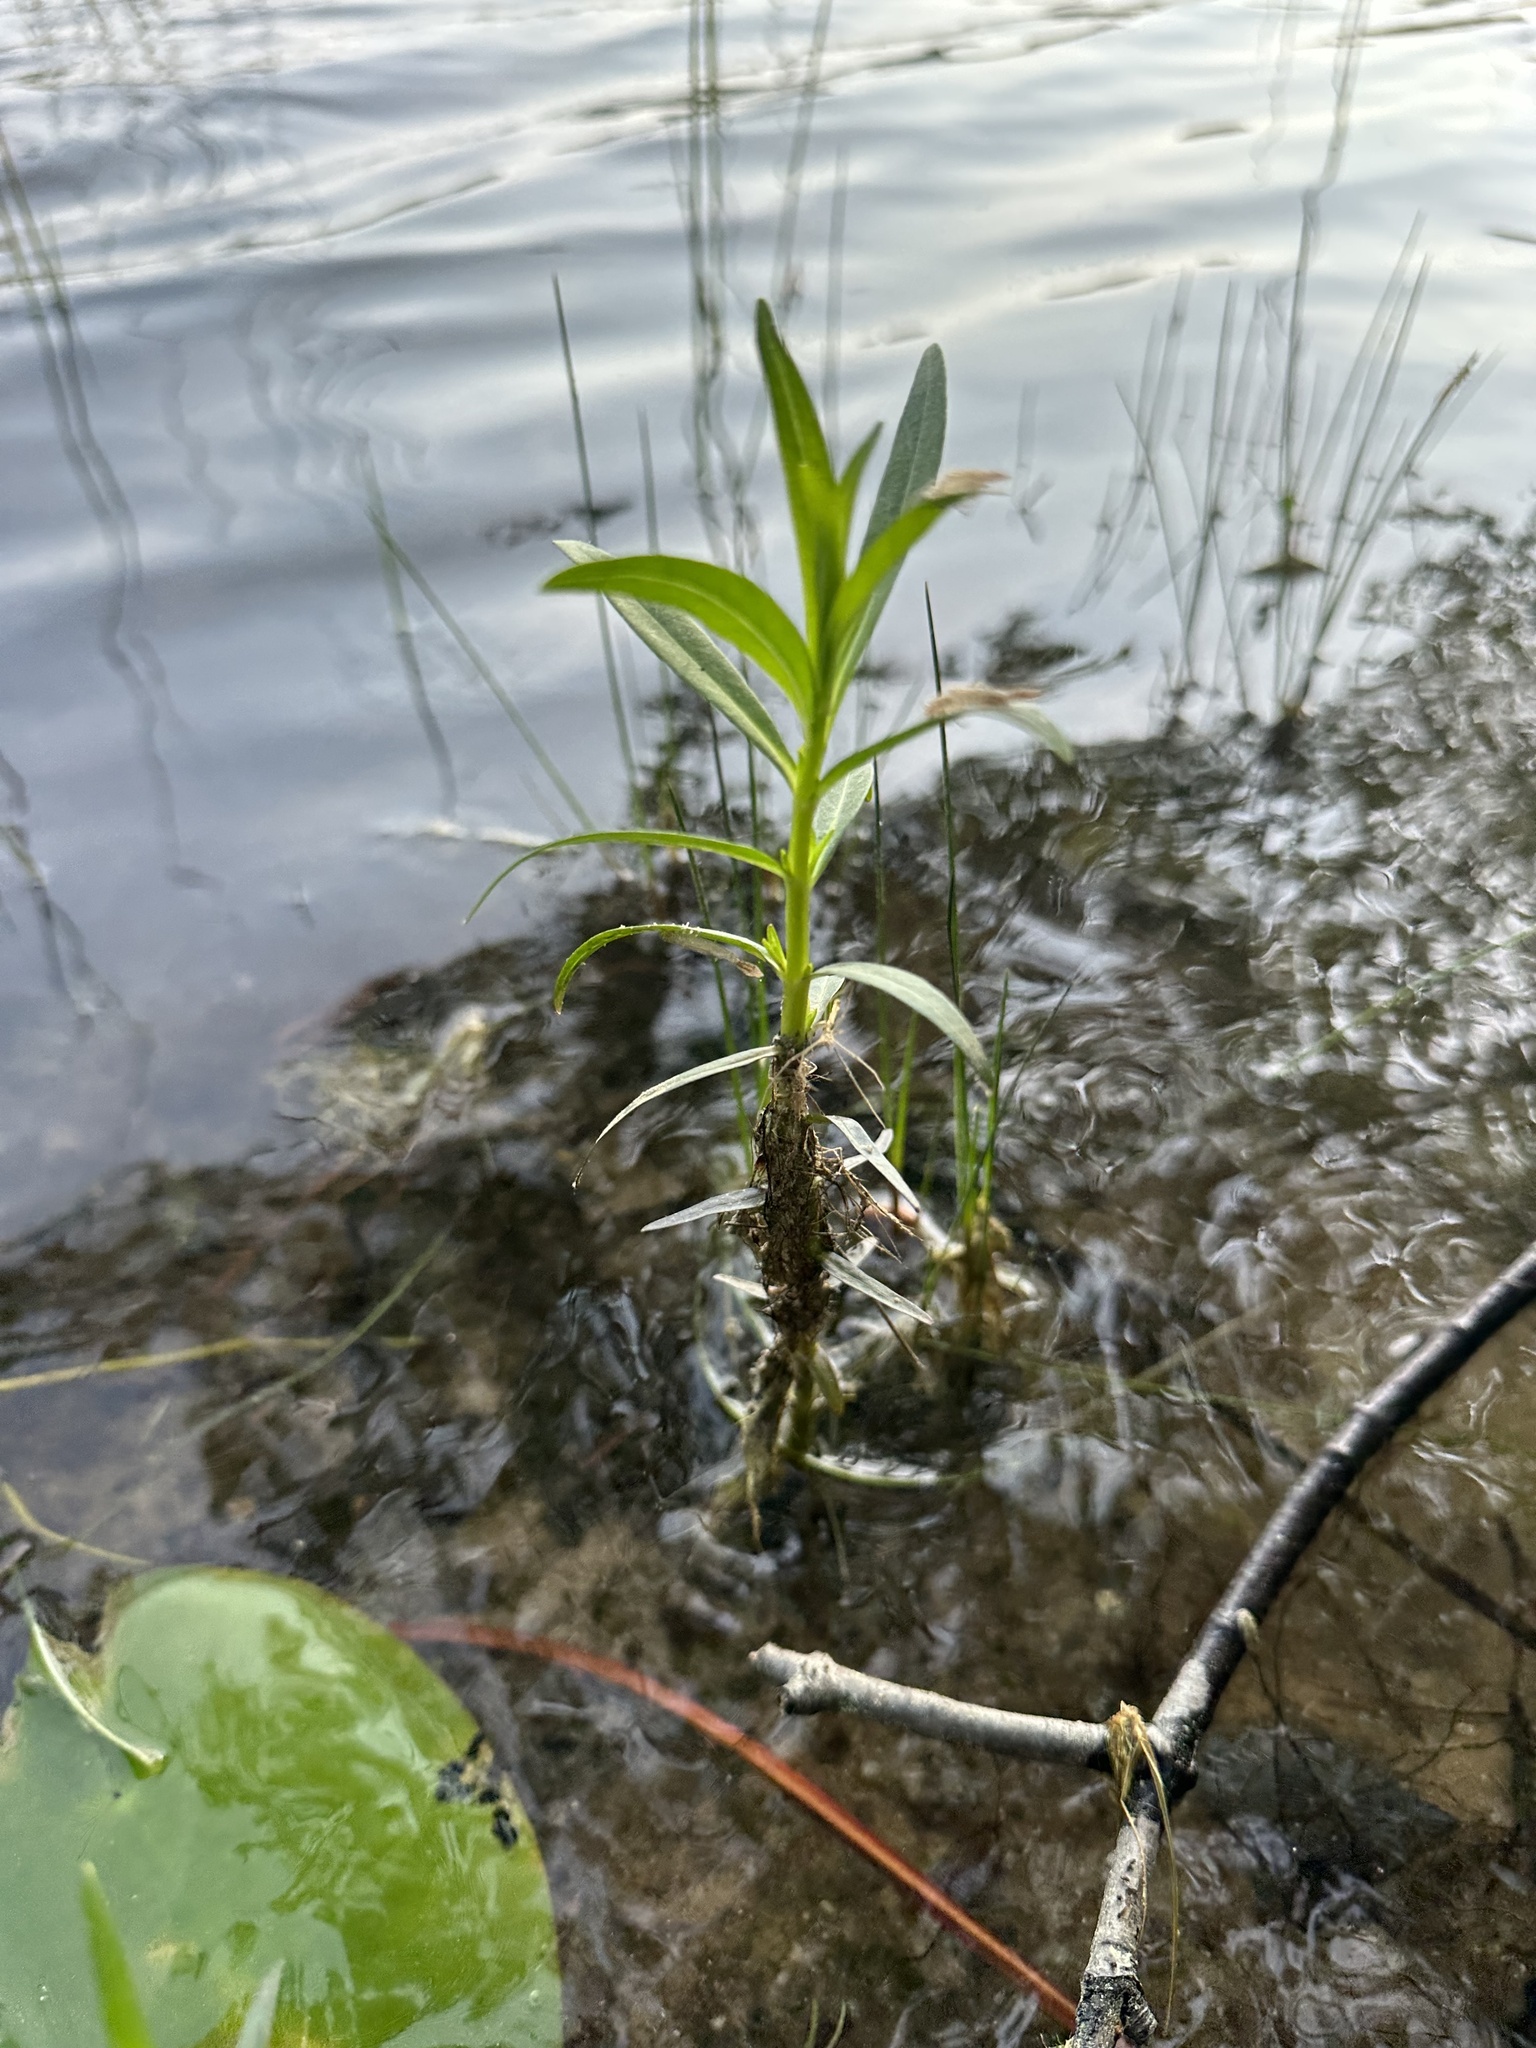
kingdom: Plantae
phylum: Tracheophyta
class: Magnoliopsida
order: Saxifragales
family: Haloragaceae
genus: Proserpinaca
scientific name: Proserpinaca palustris
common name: Marsh mermaidweed
